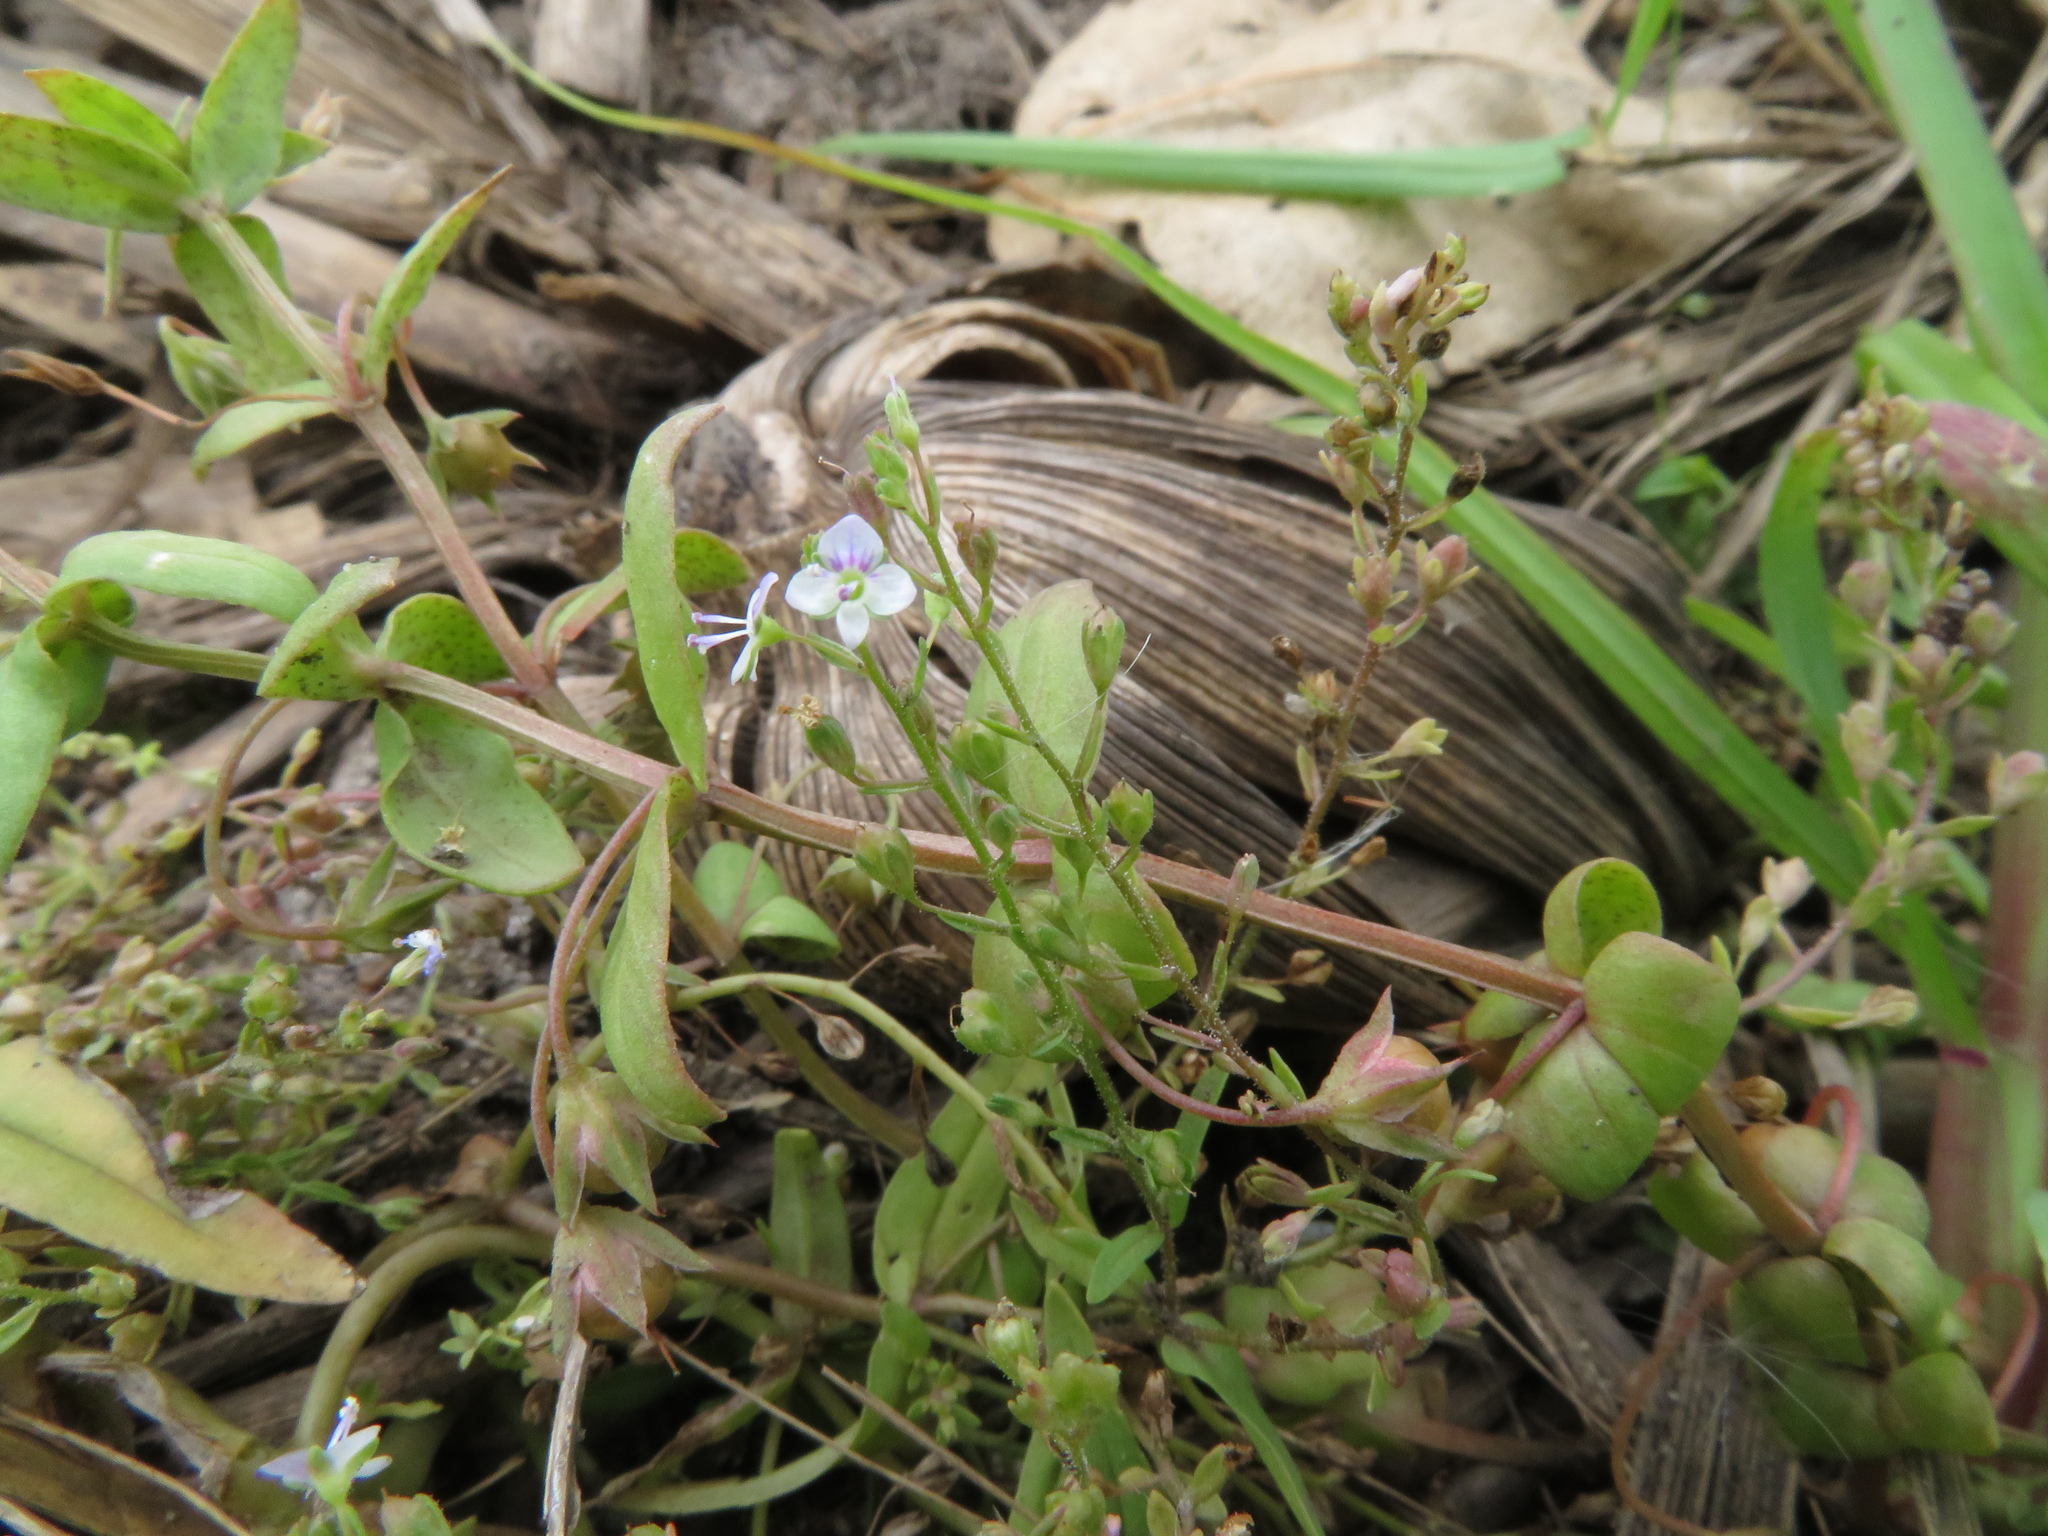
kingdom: Plantae
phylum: Tracheophyta
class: Magnoliopsida
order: Lamiales
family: Plantaginaceae
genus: Veronica
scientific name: Veronica anagalloides
